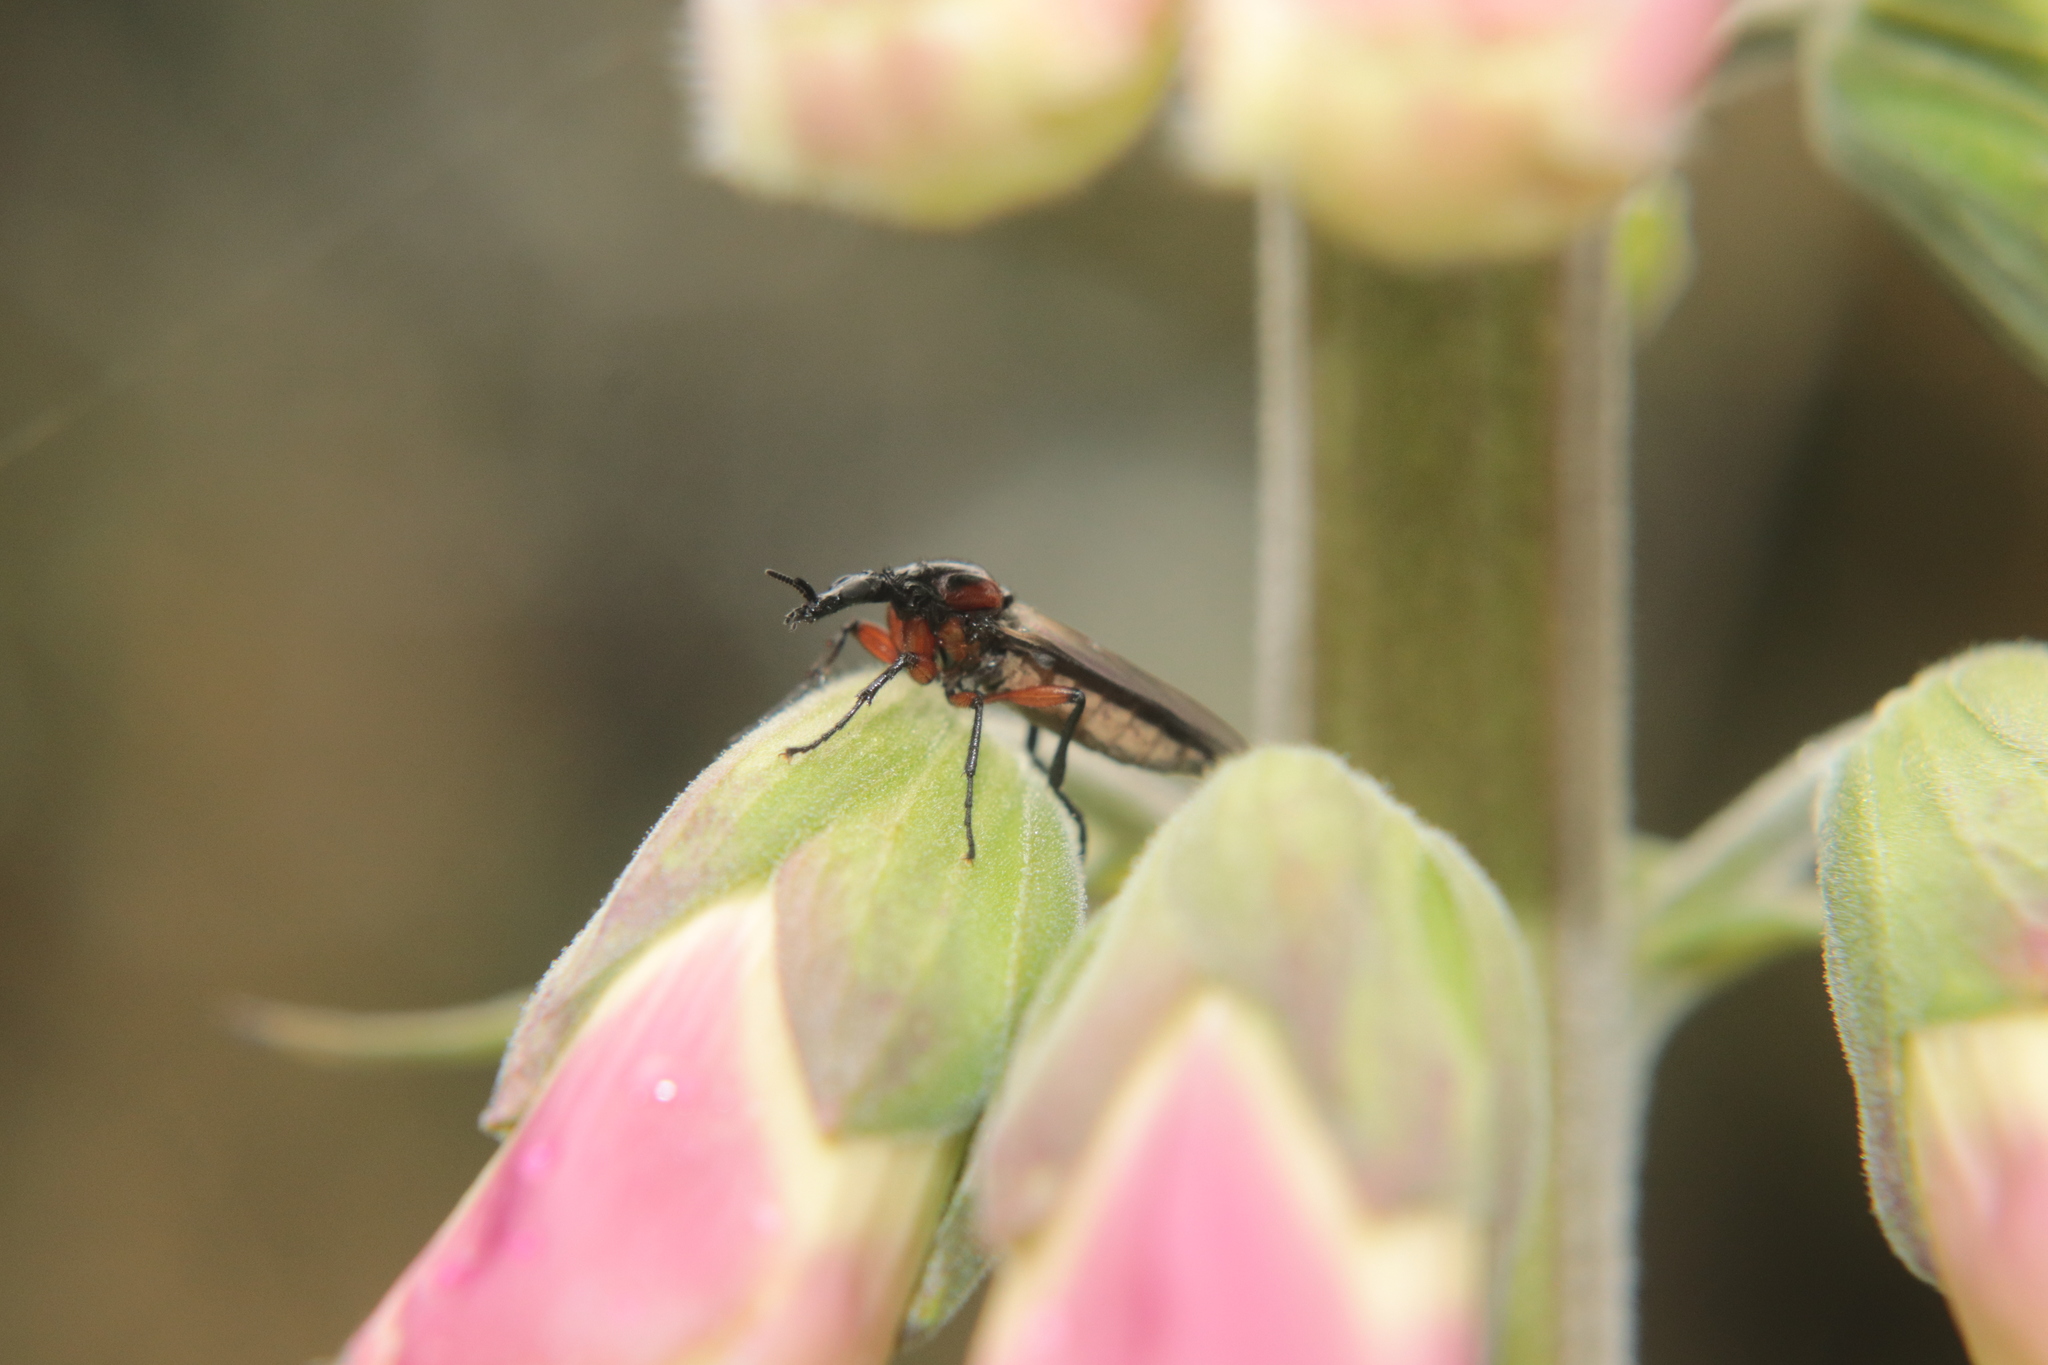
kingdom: Animalia
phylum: Arthropoda
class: Insecta
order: Diptera
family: Bibionidae
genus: Dilophus
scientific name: Dilophus nigrostigma
